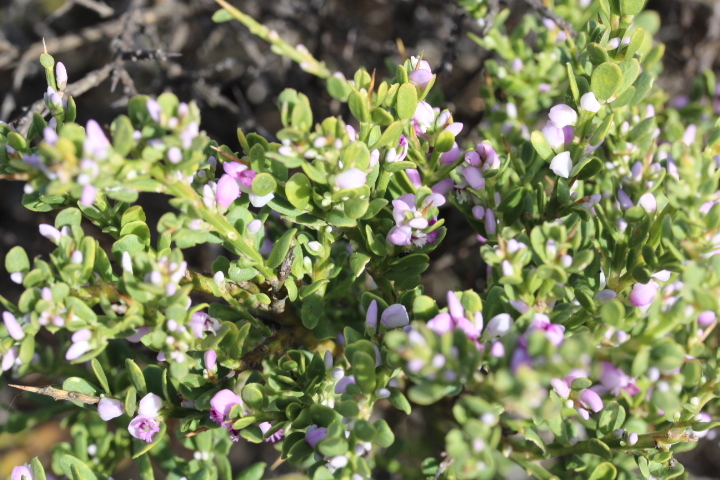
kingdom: Plantae
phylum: Tracheophyta
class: Magnoliopsida
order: Fabales
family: Polygalaceae
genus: Muraltia
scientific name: Muraltia spinosa
